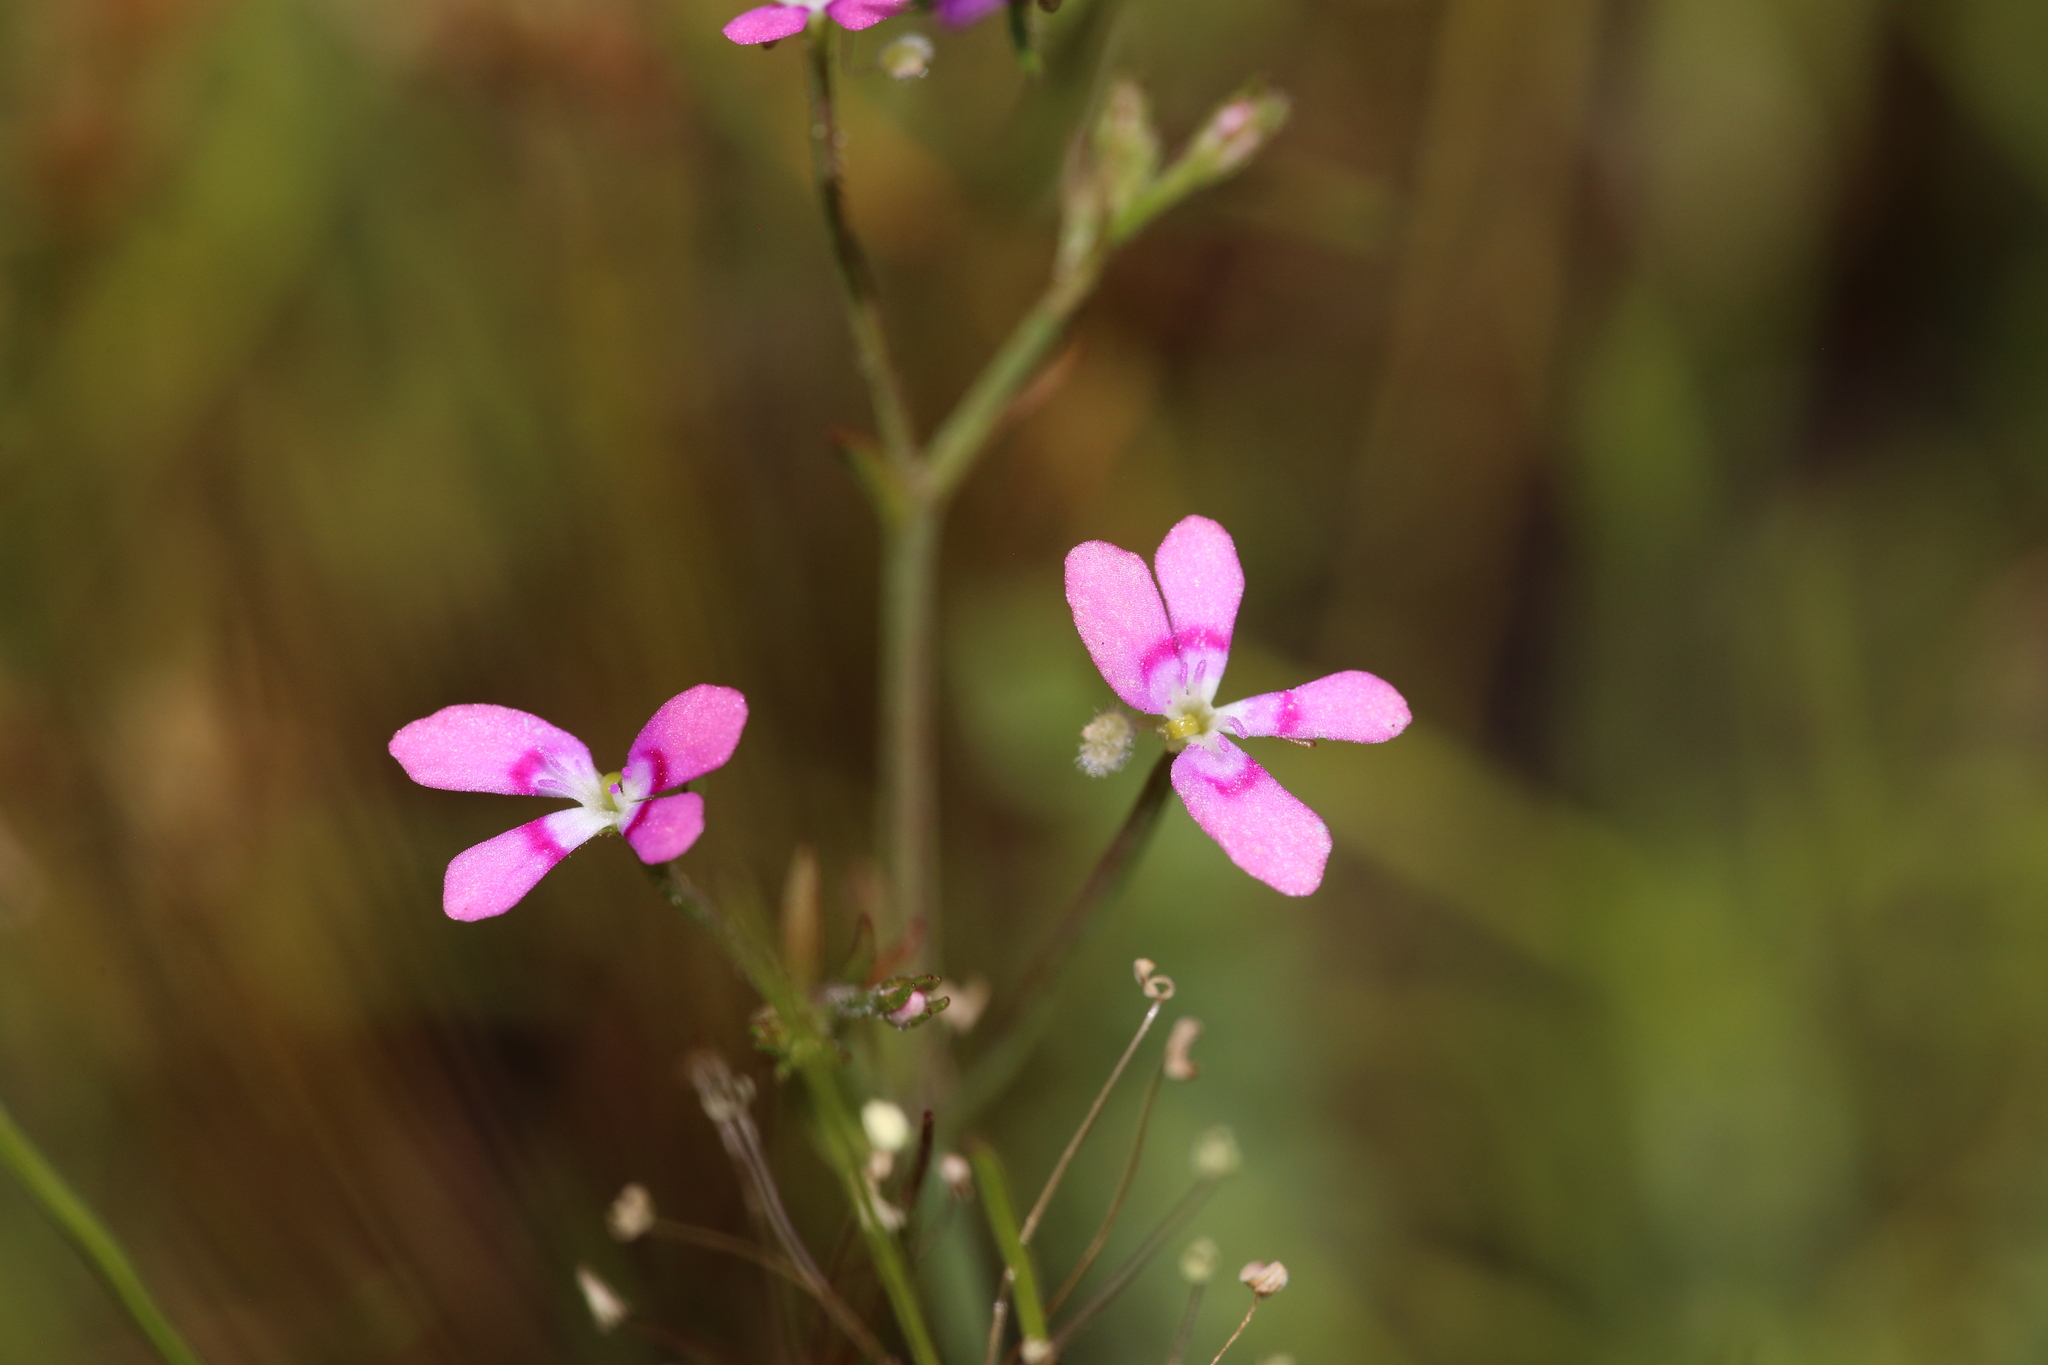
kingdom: Plantae
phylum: Tracheophyta
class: Magnoliopsida
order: Asterales
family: Stylidiaceae
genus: Stylidium
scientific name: Stylidium longitubum
